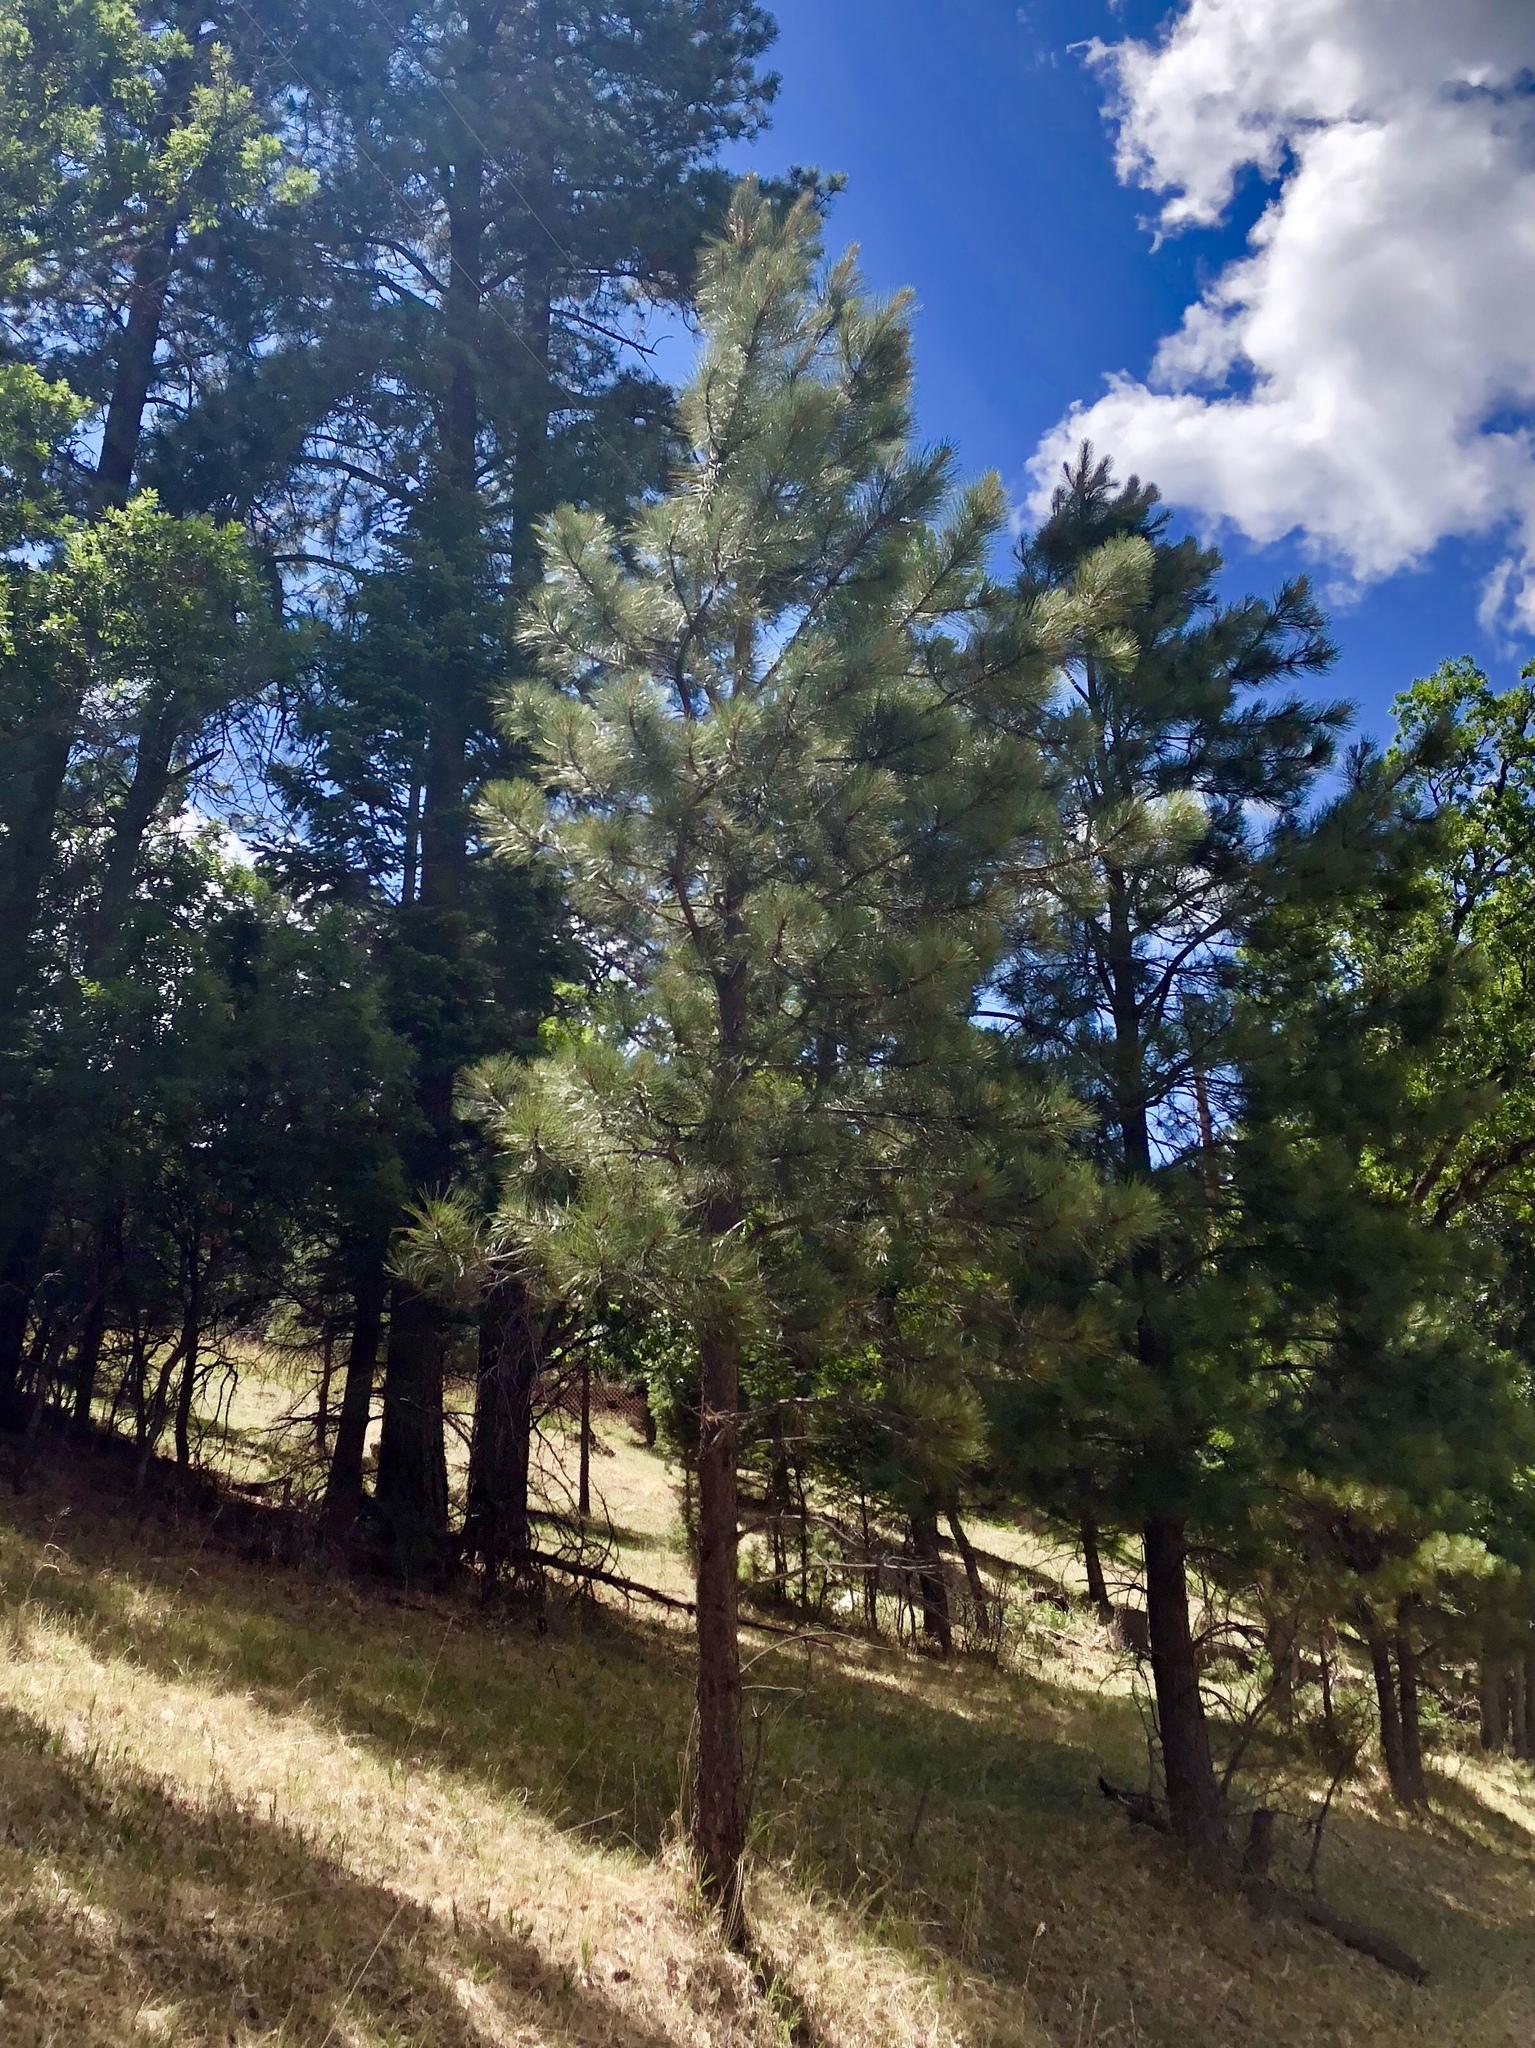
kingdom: Plantae
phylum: Tracheophyta
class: Pinopsida
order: Pinales
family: Pinaceae
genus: Pinus
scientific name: Pinus ponderosa
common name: Western yellow-pine
